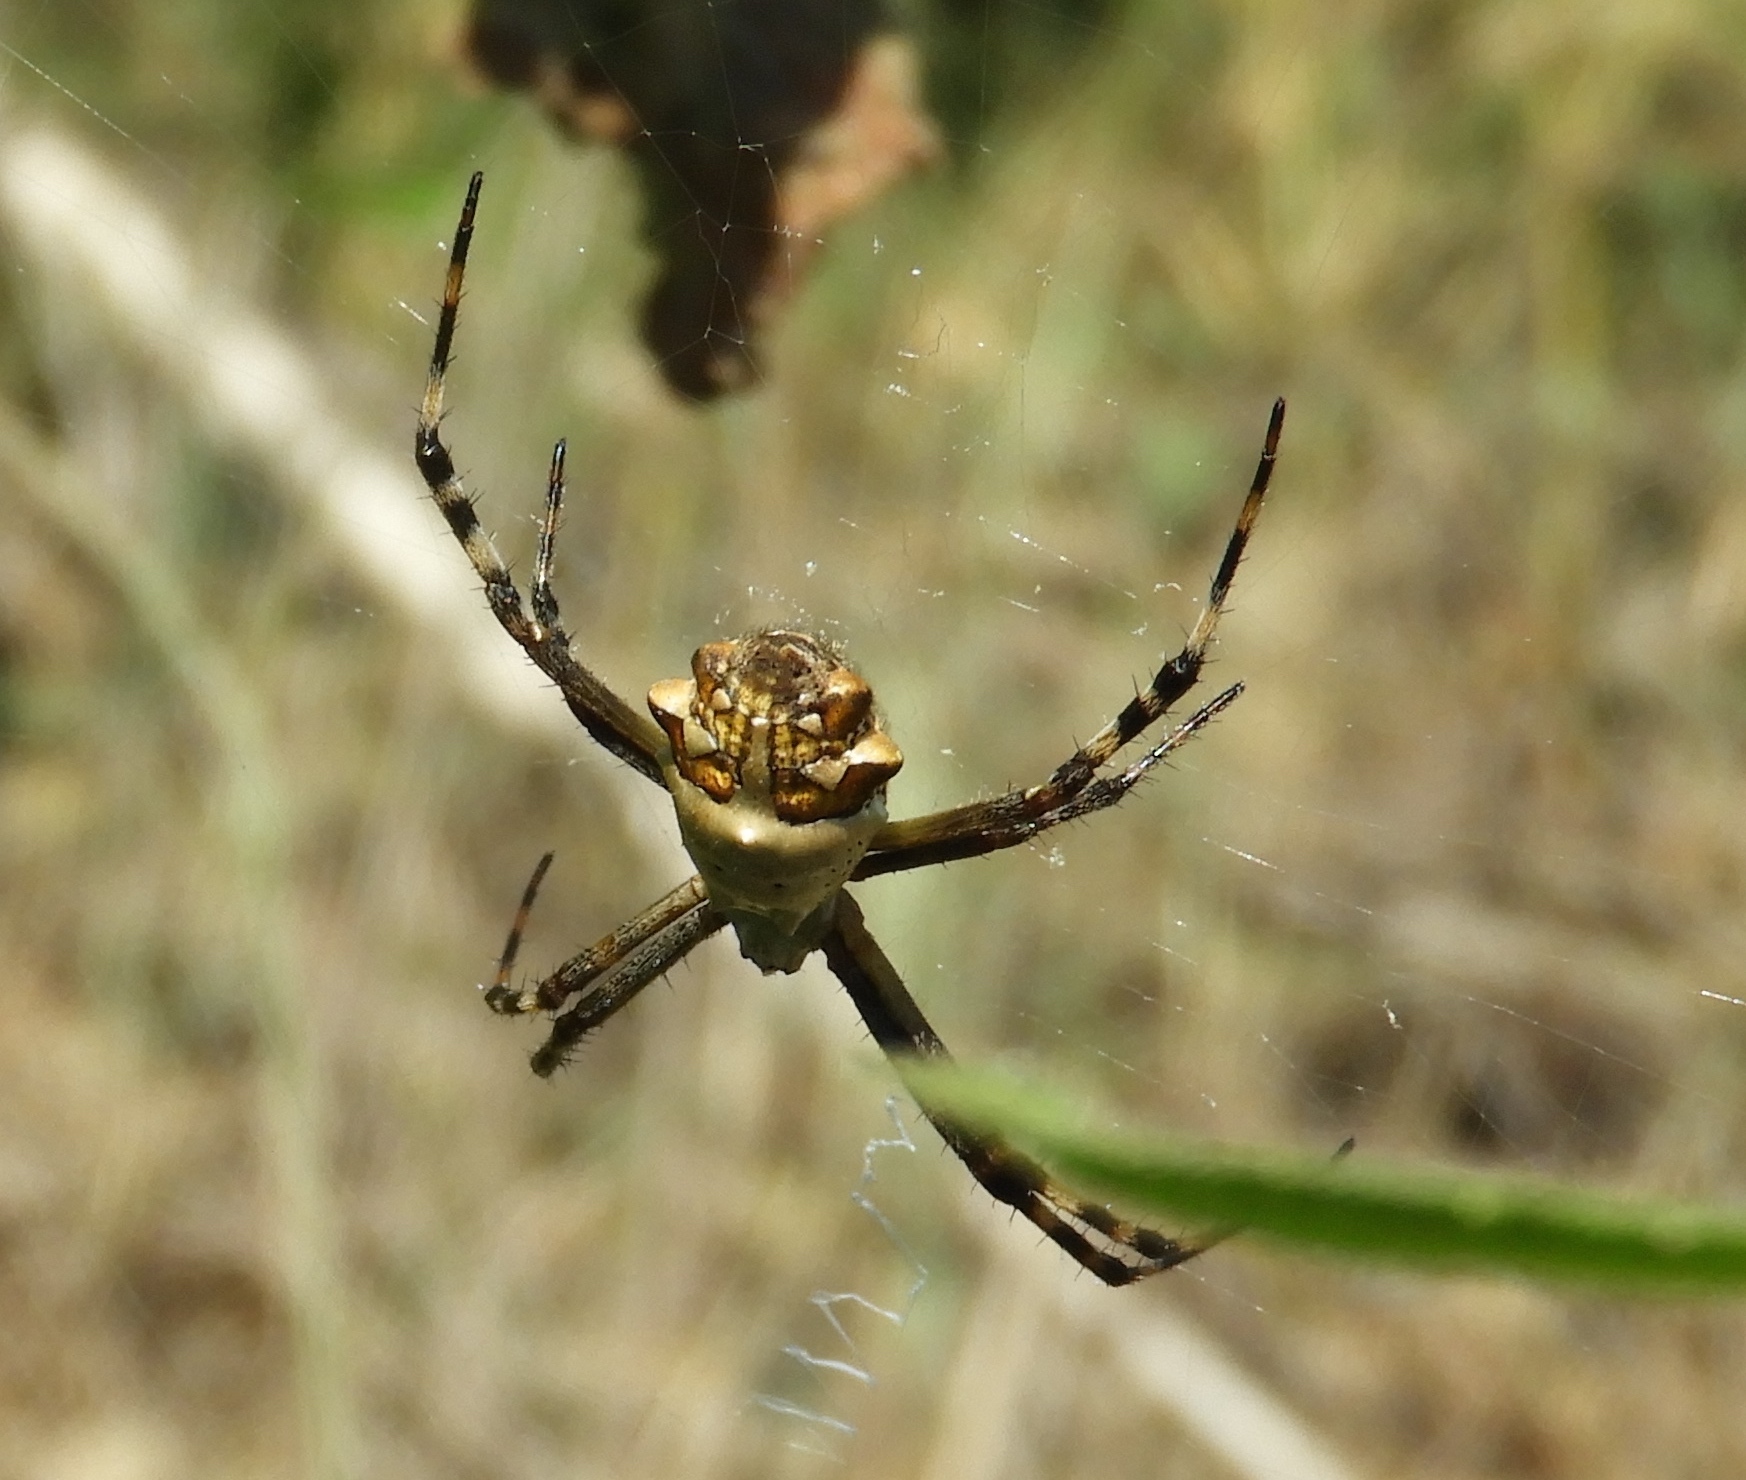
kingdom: Animalia
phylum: Arthropoda
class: Arachnida
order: Araneae
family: Araneidae
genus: Argiope
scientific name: Argiope argentata
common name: Orb weavers
